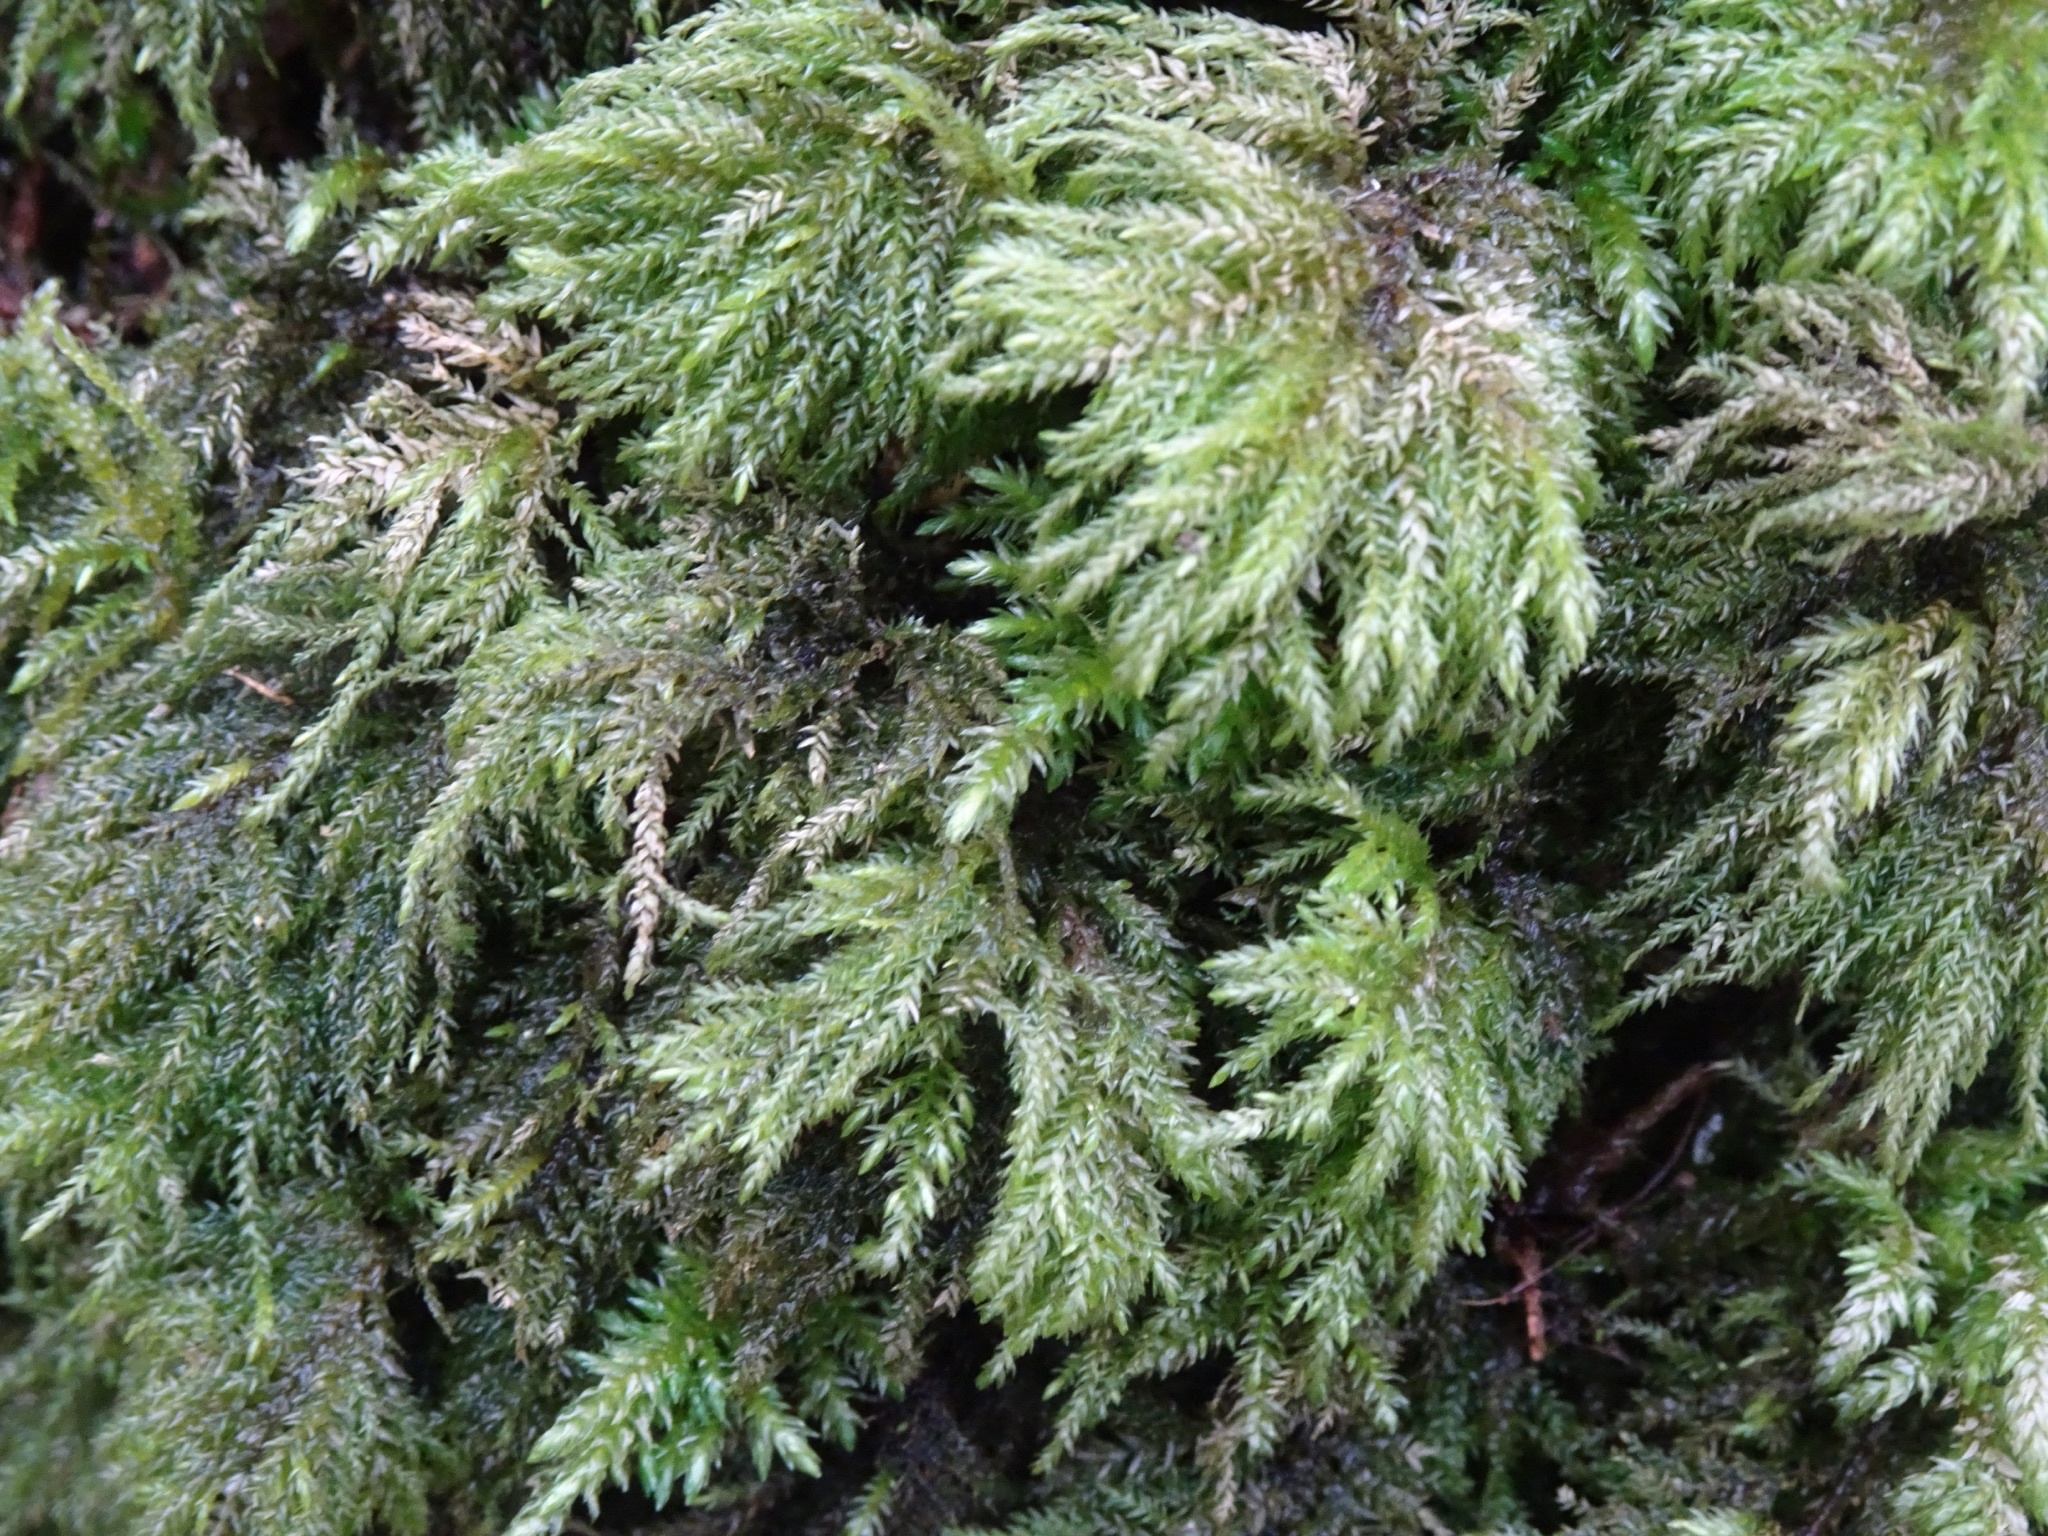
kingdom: Plantae
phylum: Bryophyta
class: Bryopsida
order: Hypnales
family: Neckeraceae
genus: Thamnobryum
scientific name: Thamnobryum alopecurum
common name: Fox-tail feather-moss
